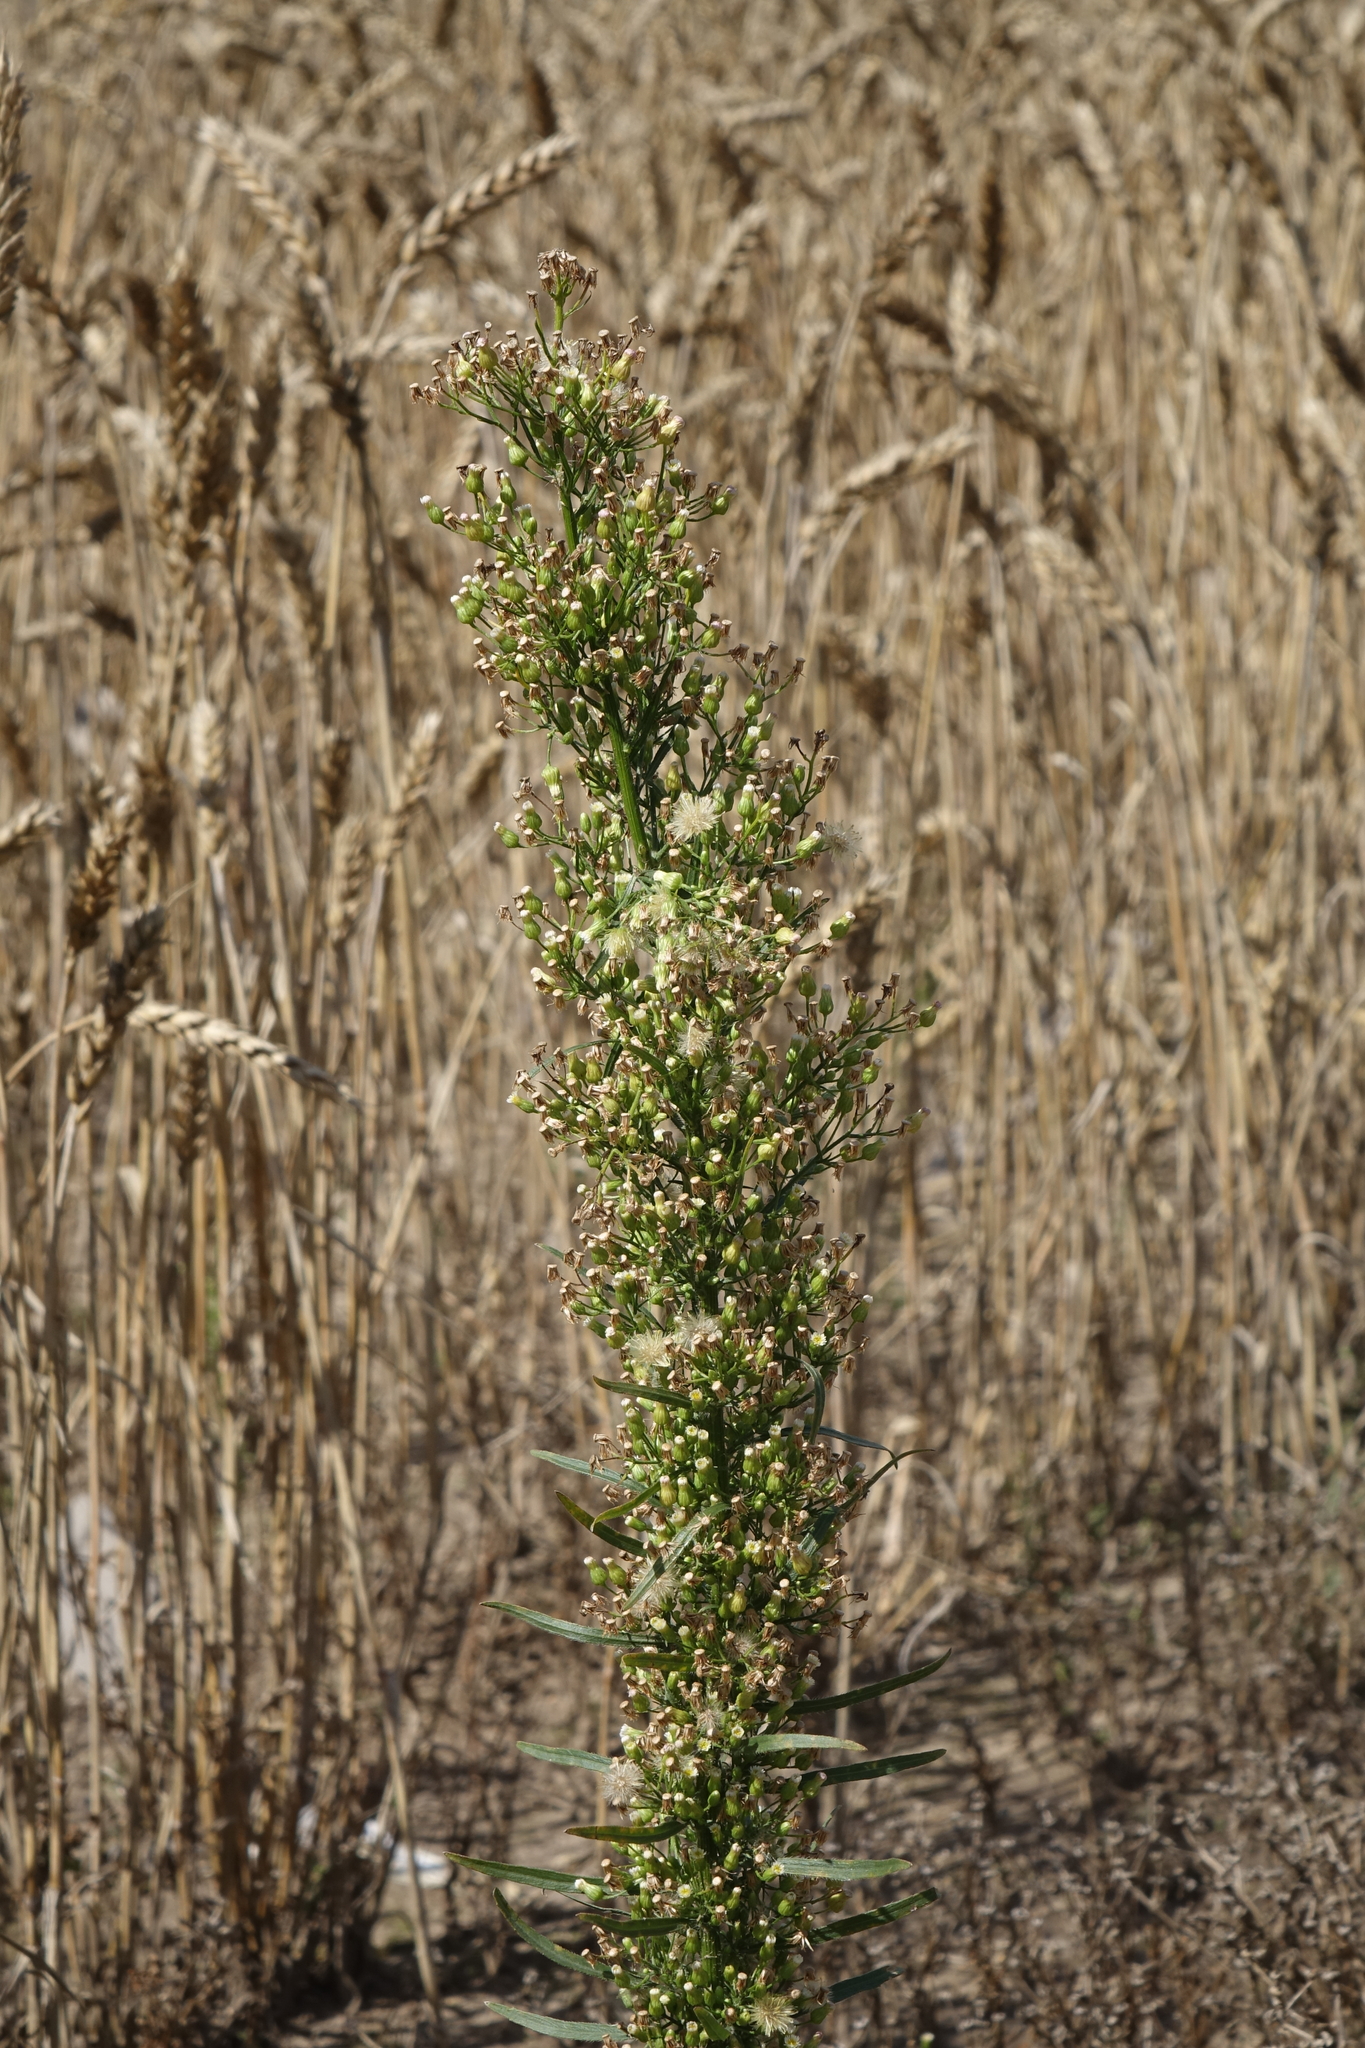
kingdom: Plantae
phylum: Tracheophyta
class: Magnoliopsida
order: Asterales
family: Asteraceae
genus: Erigeron
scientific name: Erigeron canadensis
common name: Canadian fleabane
